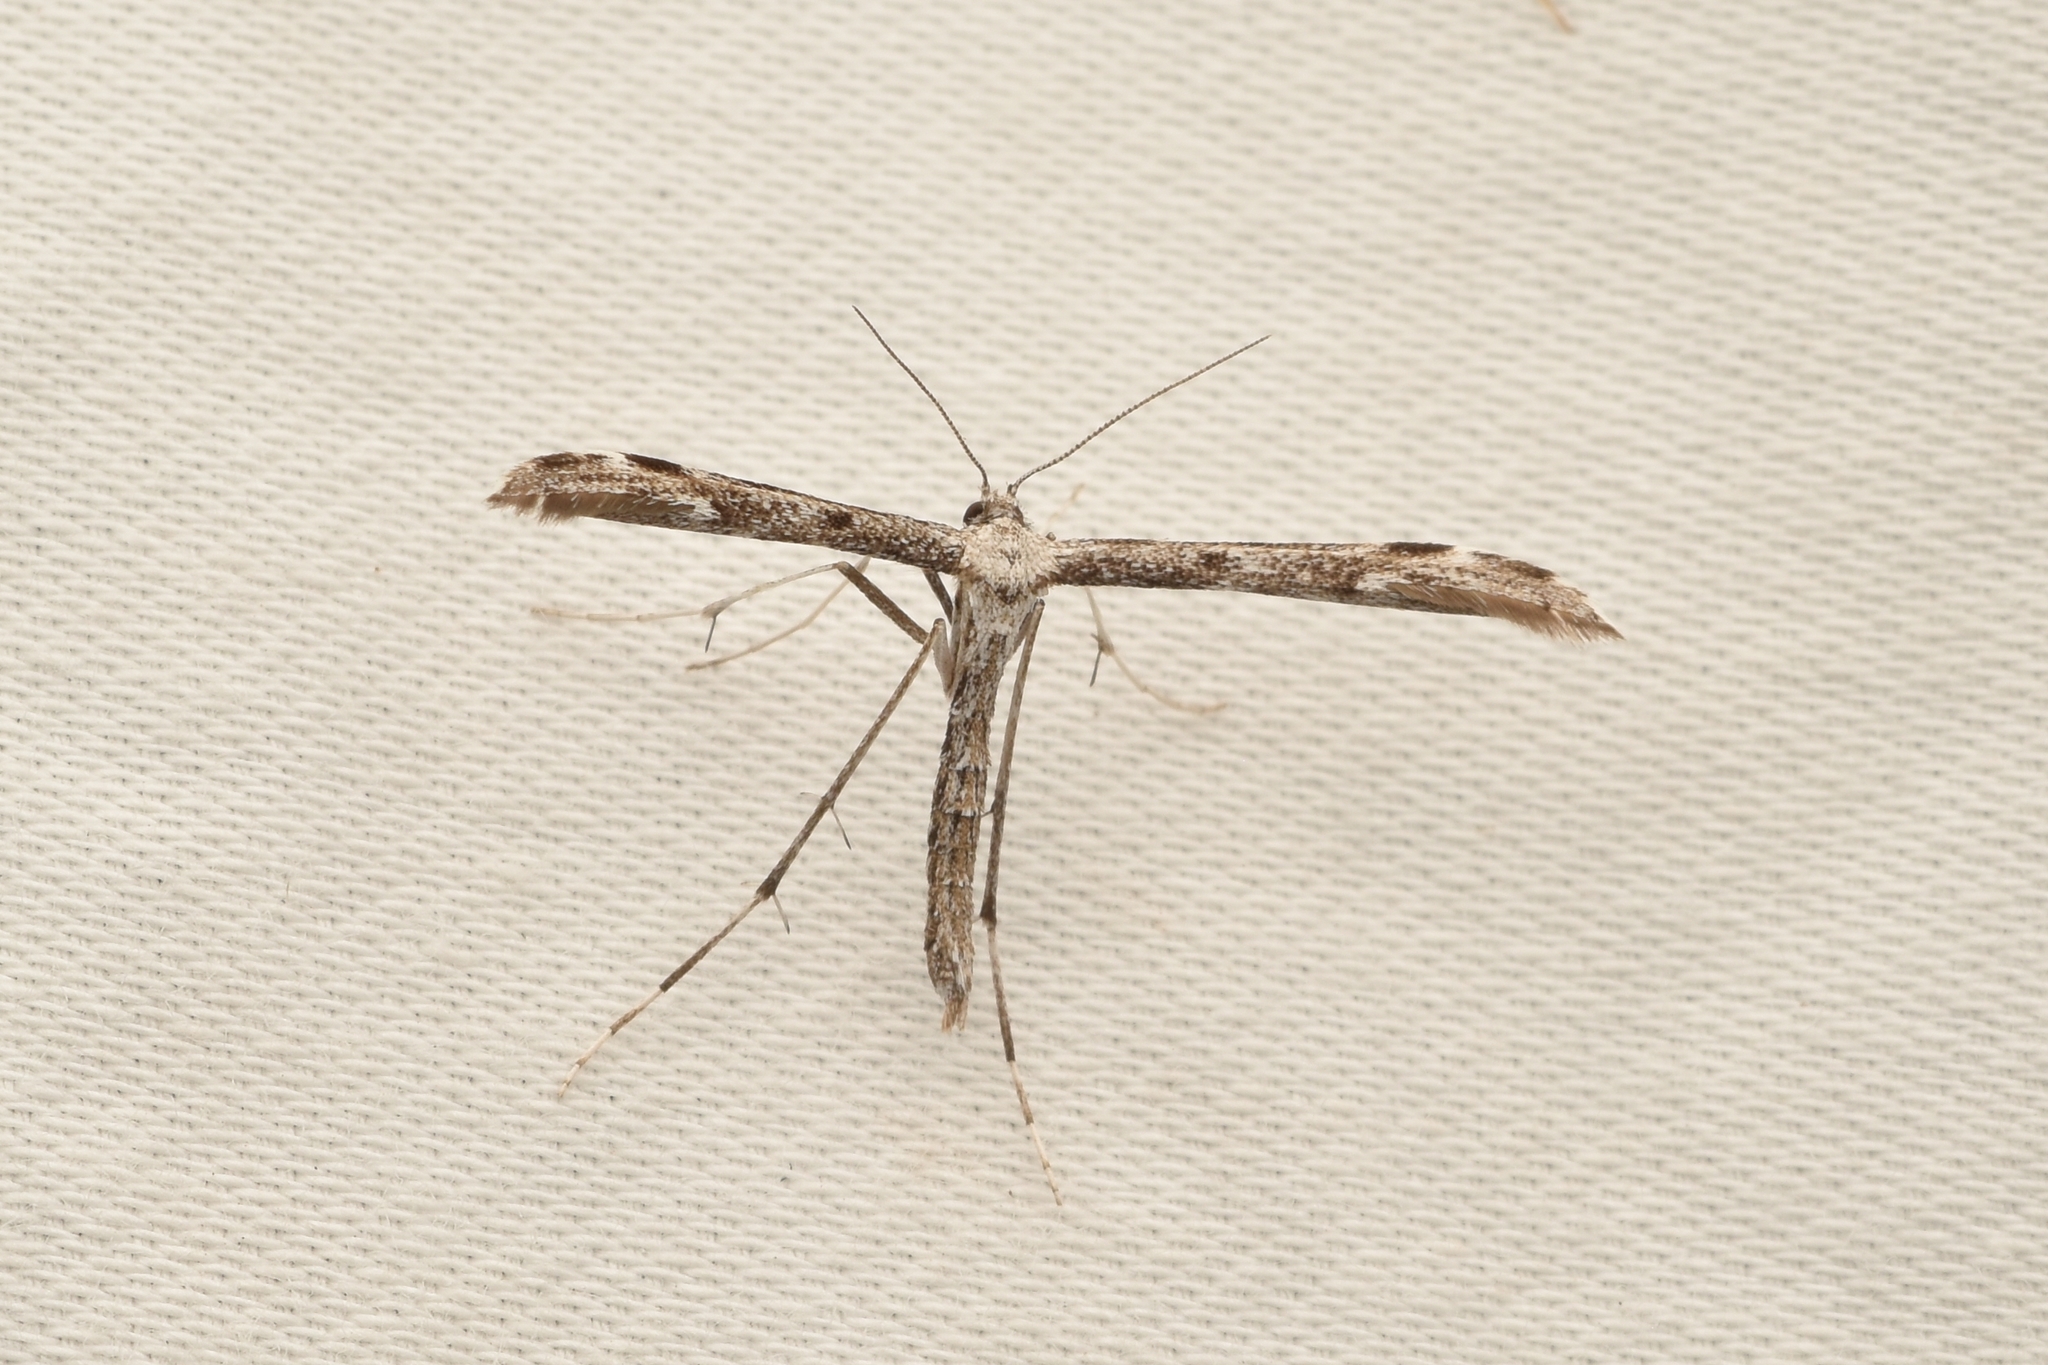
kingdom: Animalia
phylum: Arthropoda
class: Insecta
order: Lepidoptera
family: Pterophoridae
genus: Hellinsia
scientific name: Hellinsia inquinatus
